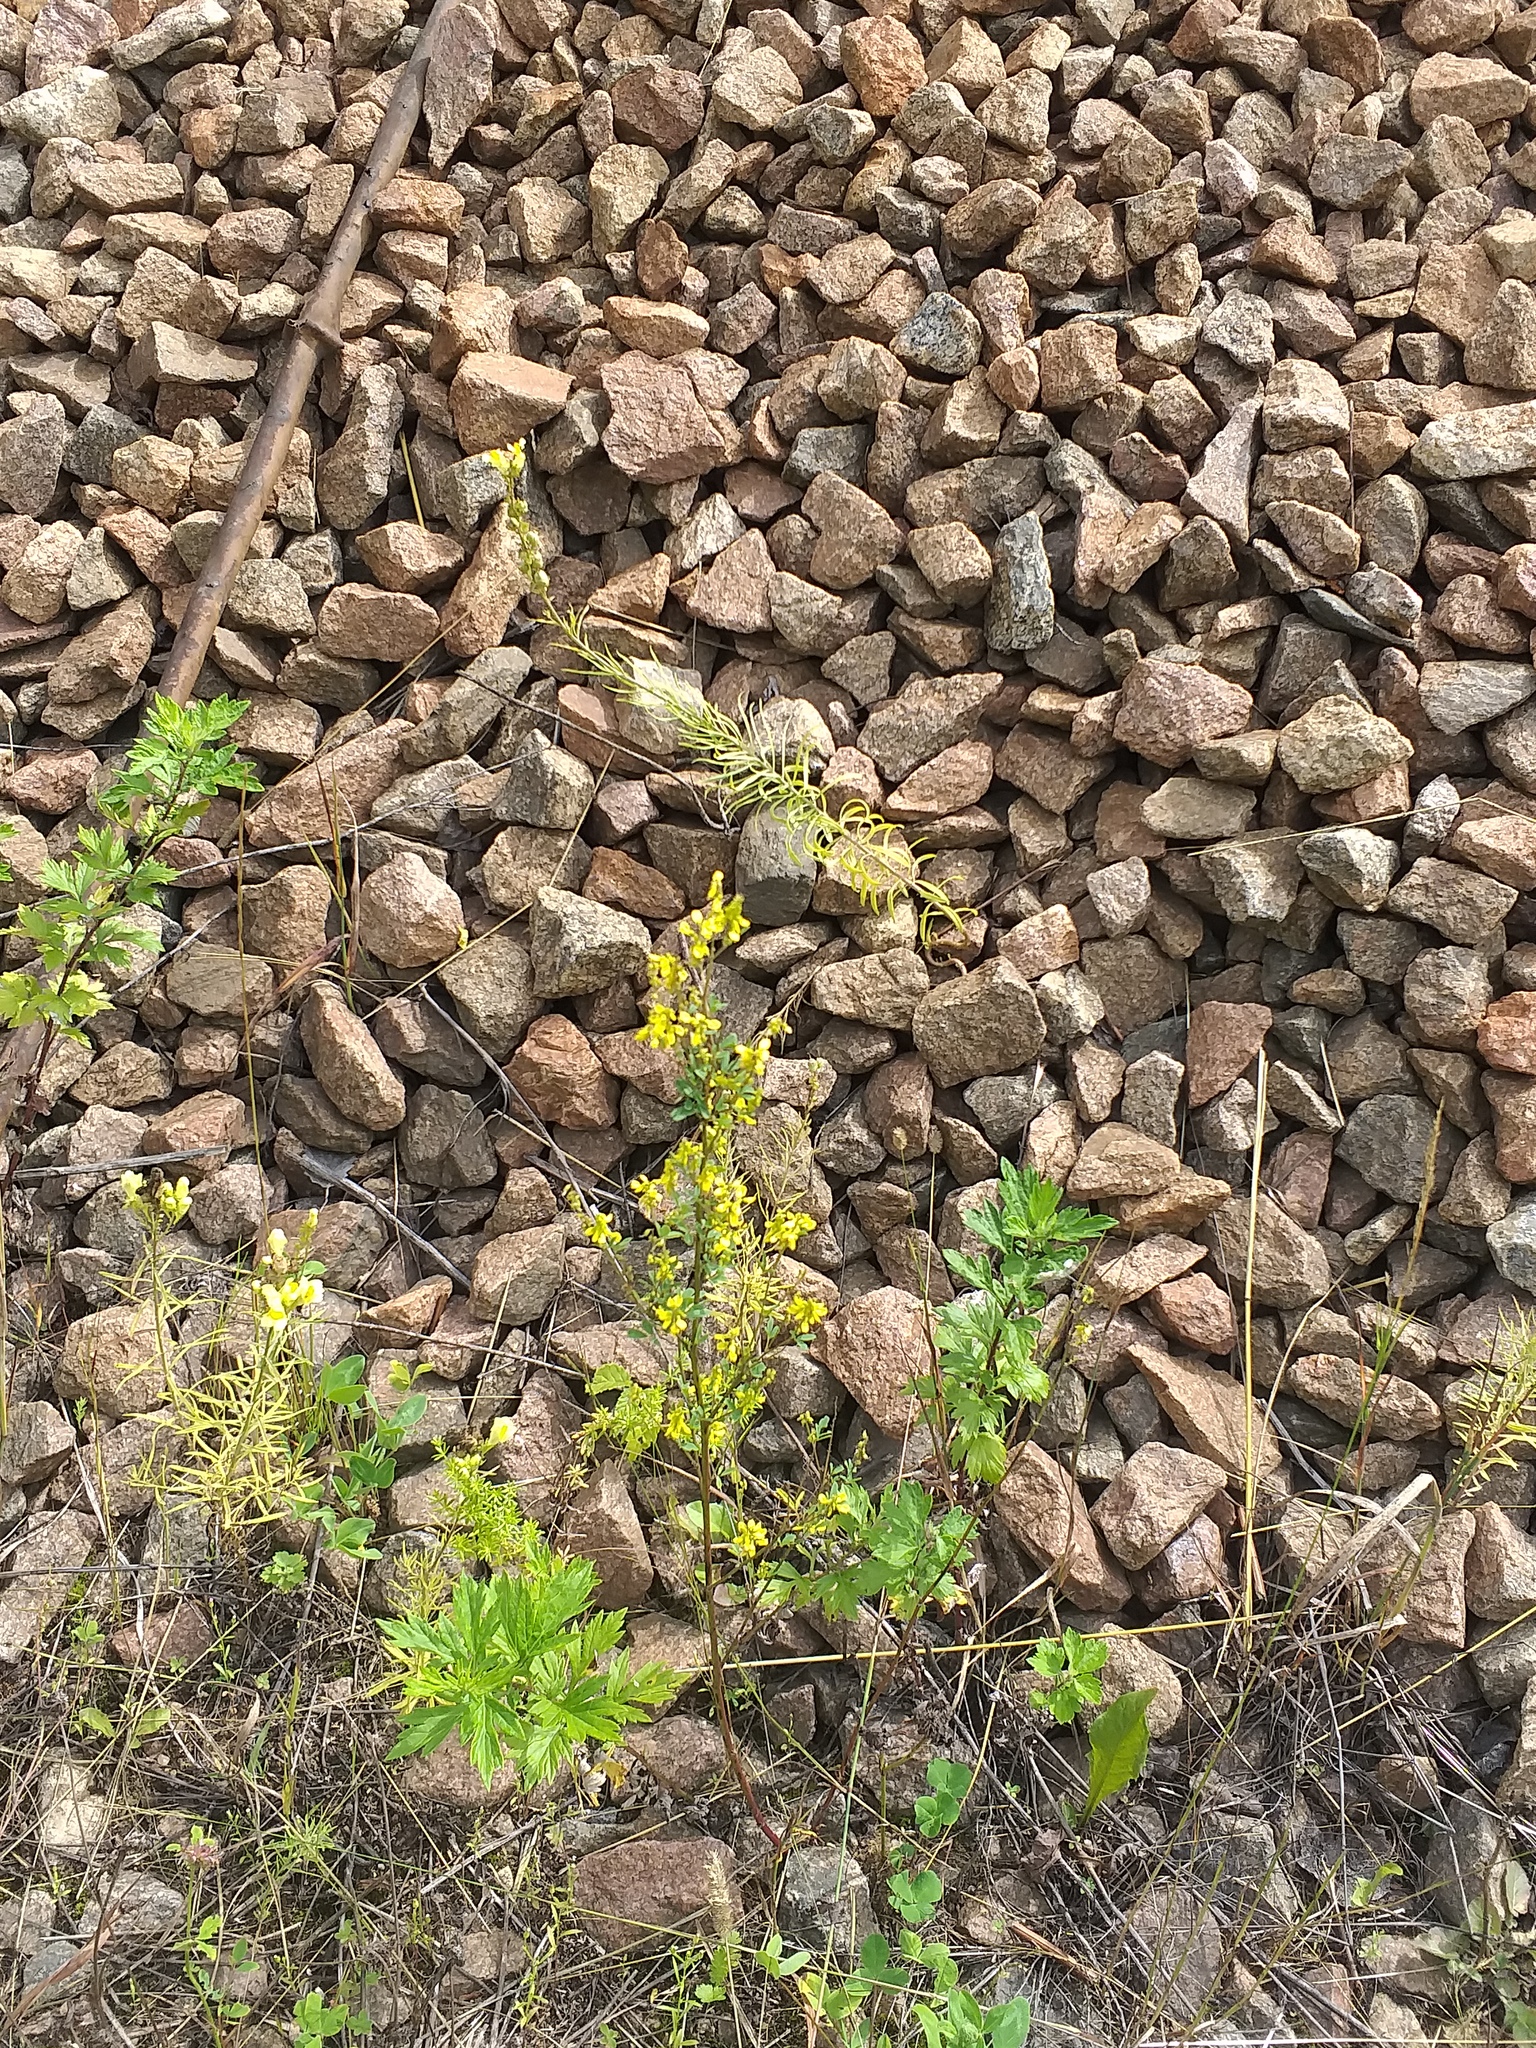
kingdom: Plantae
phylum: Tracheophyta
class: Magnoliopsida
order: Fabales
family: Fabaceae
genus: Melilotus
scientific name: Melilotus officinalis
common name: Sweetclover
